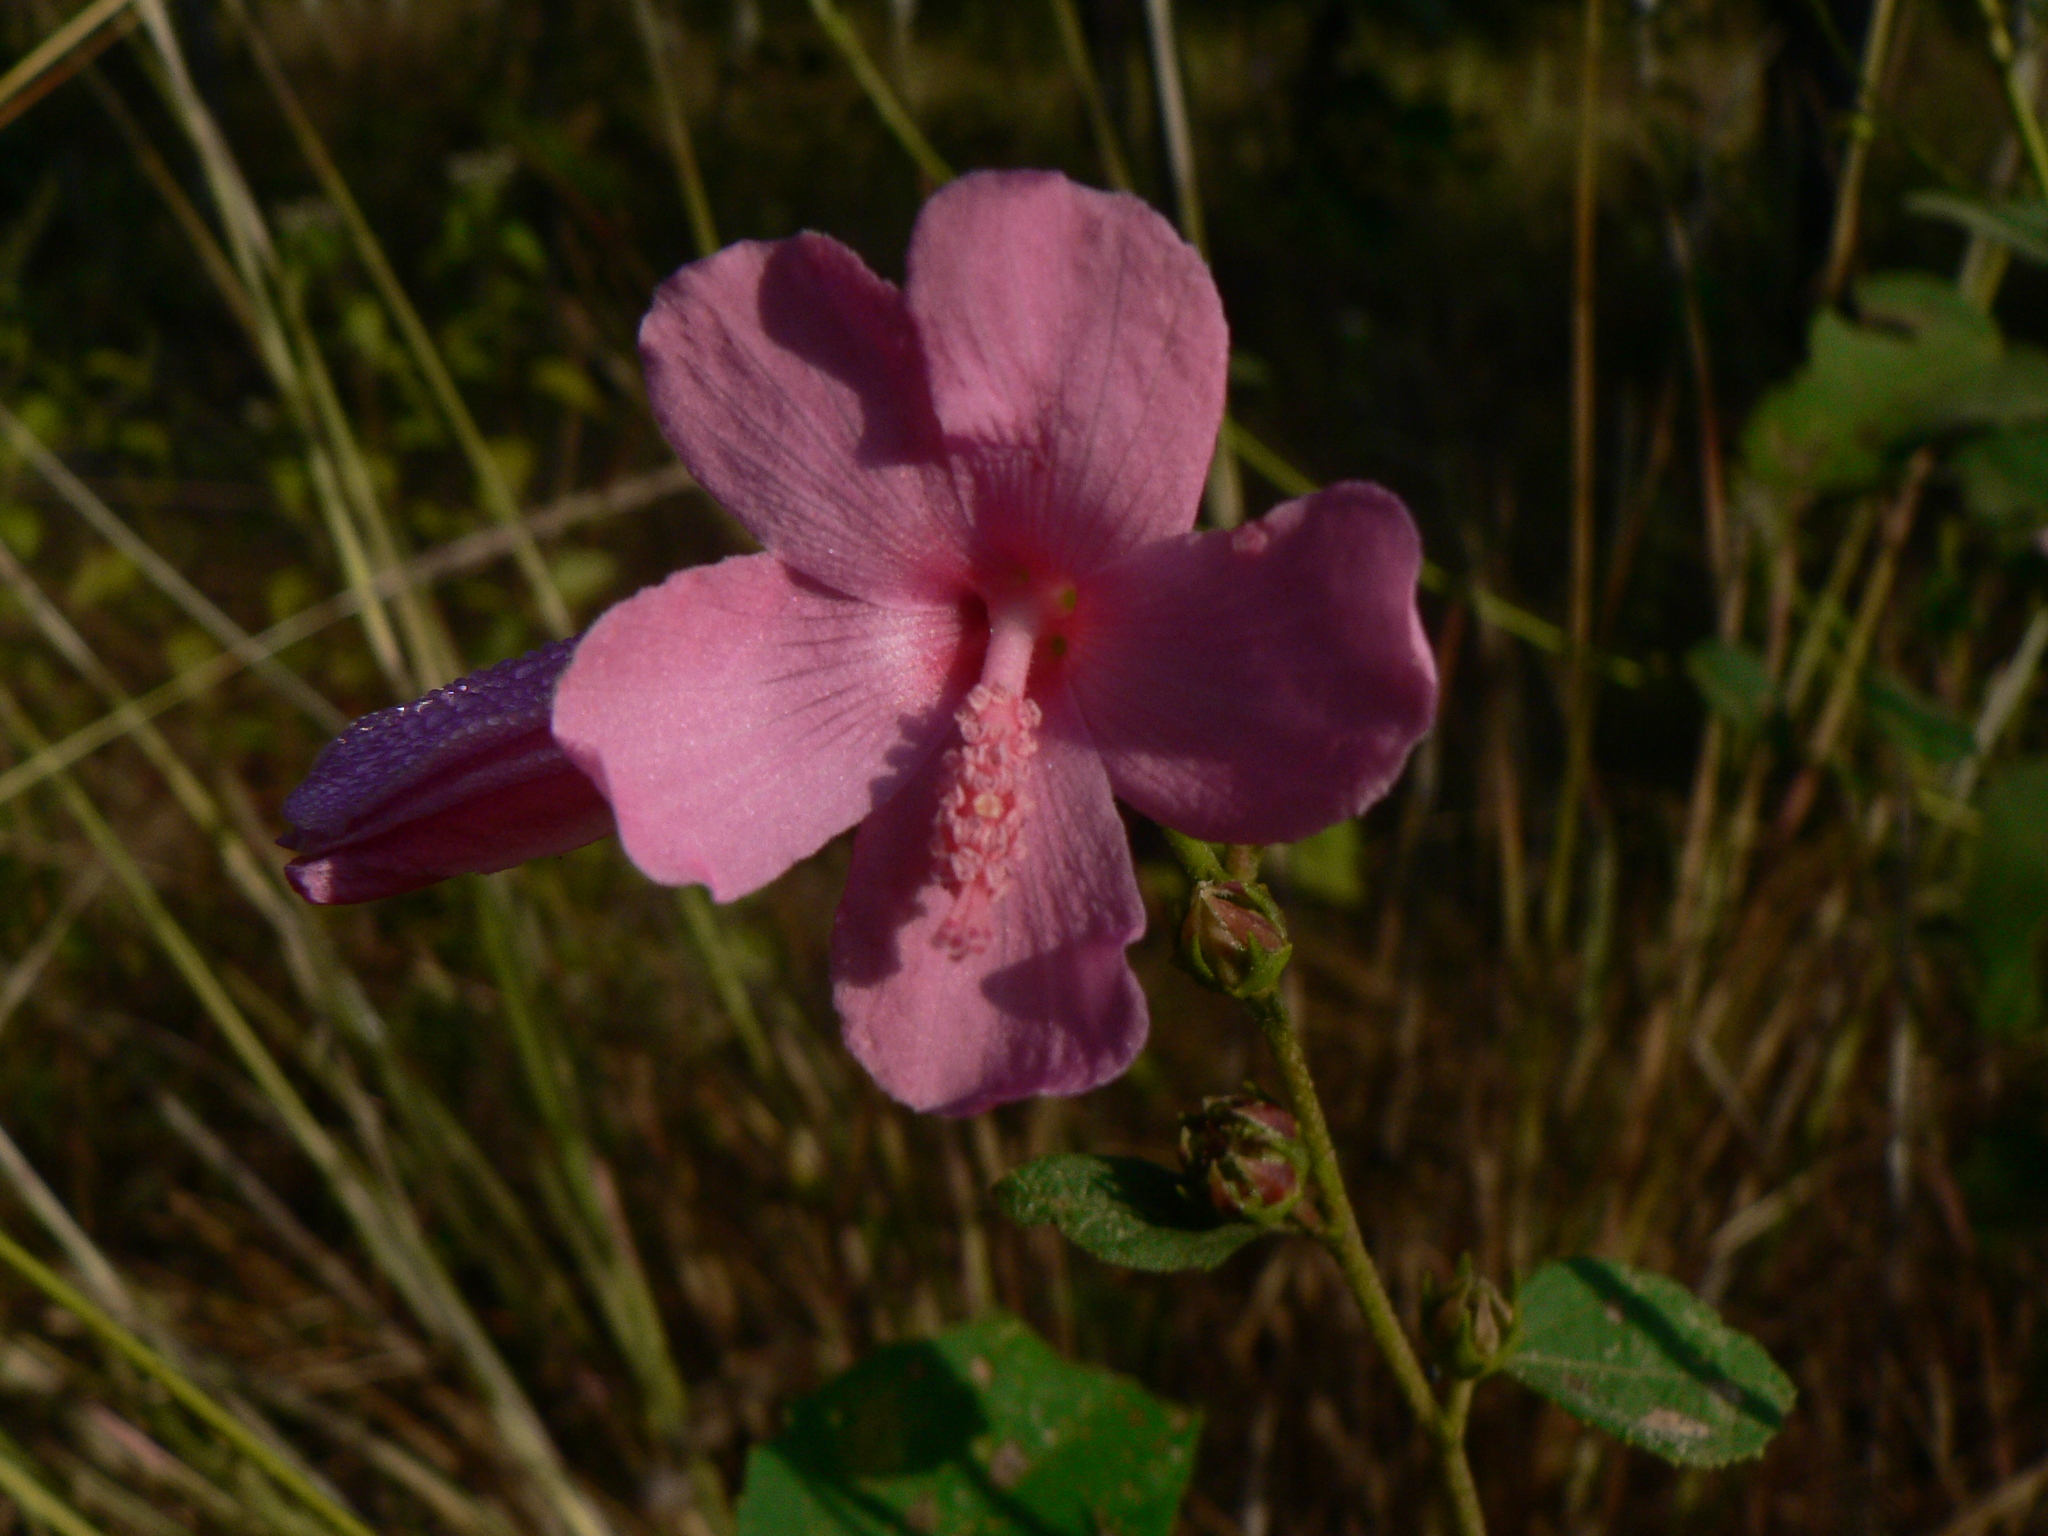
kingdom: Plantae
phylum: Tracheophyta
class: Magnoliopsida
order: Malvales
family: Malvaceae
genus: Urena
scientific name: Urena lobata
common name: Caesarweed
